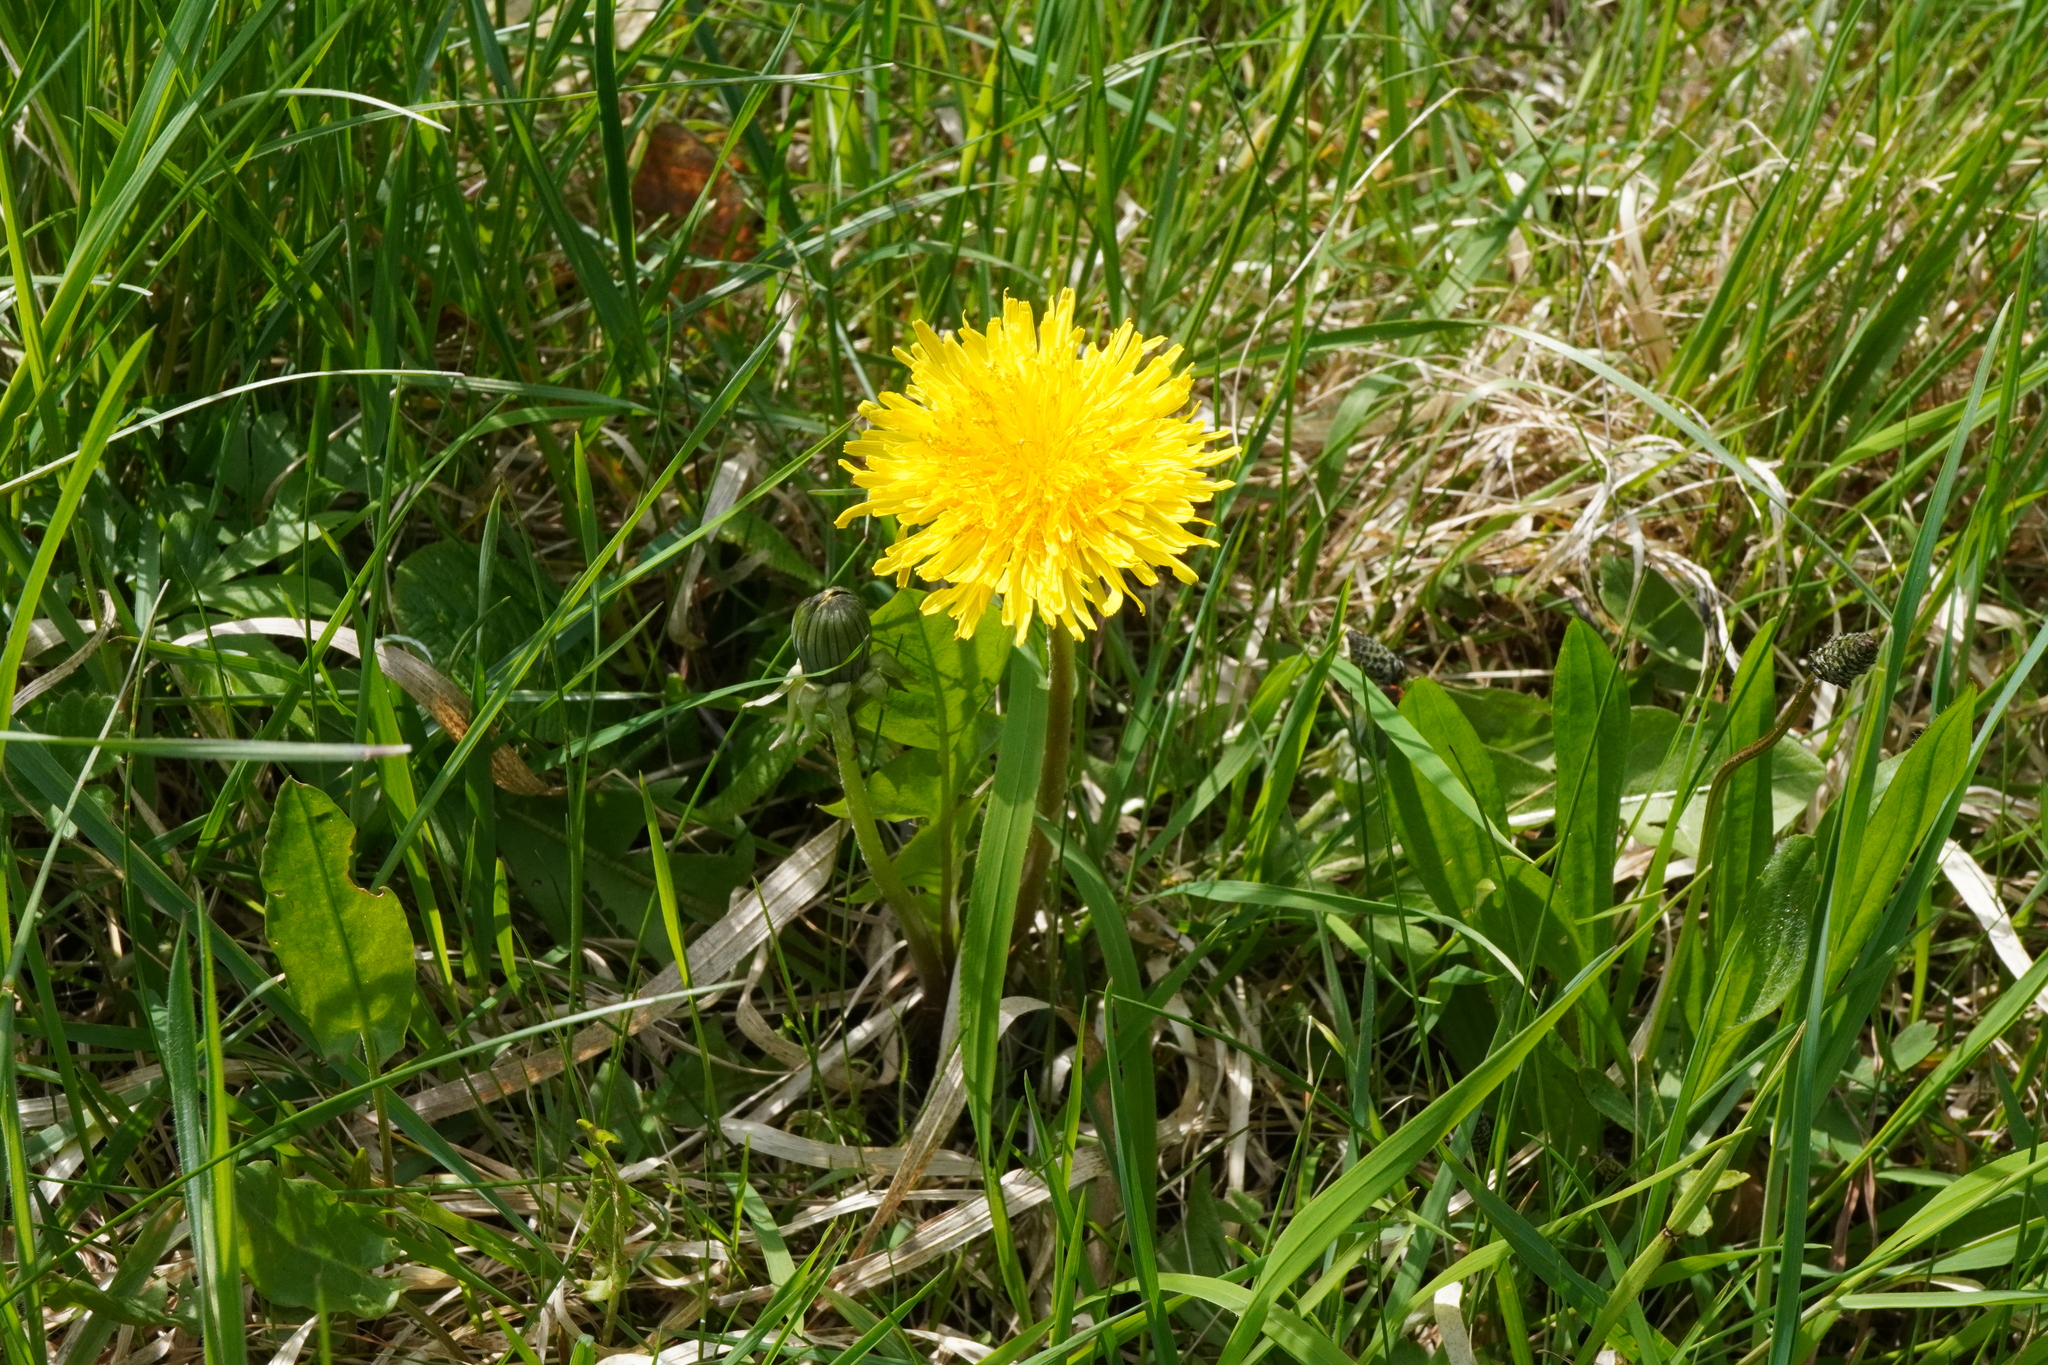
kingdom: Plantae
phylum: Tracheophyta
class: Magnoliopsida
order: Asterales
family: Asteraceae
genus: Taraxacum
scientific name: Taraxacum
